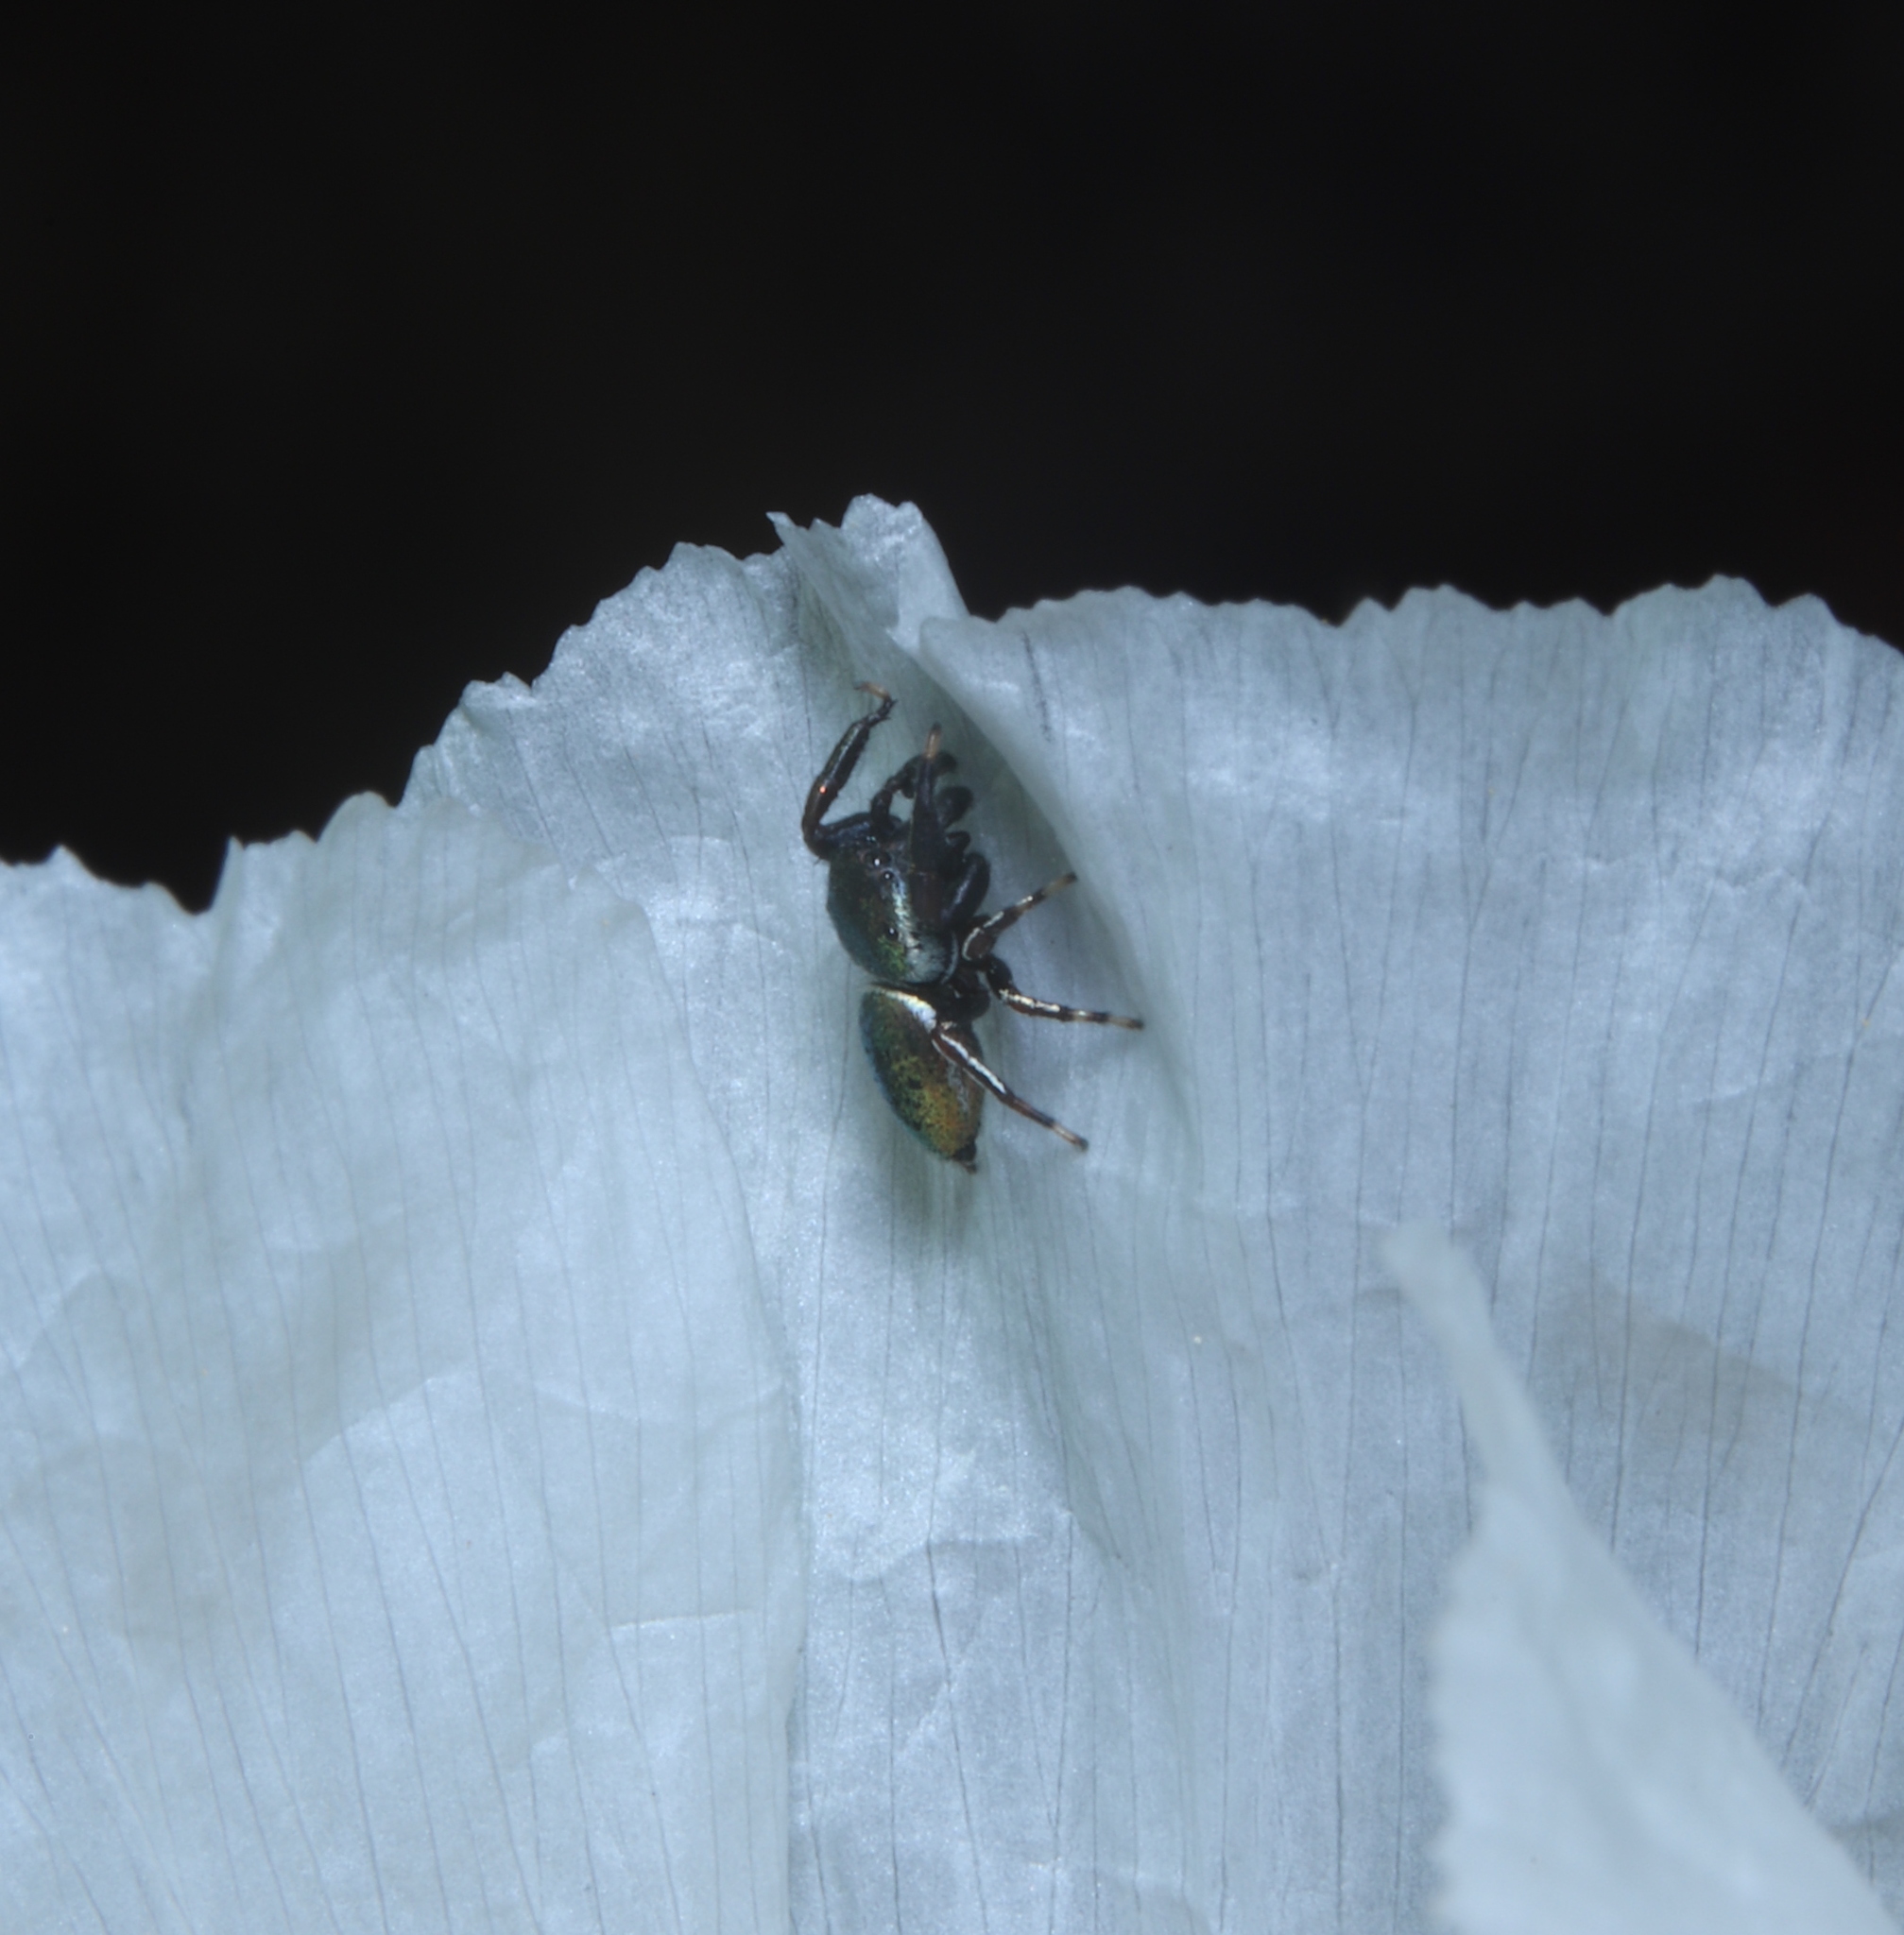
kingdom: Animalia
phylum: Arthropoda
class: Arachnida
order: Araneae
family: Salticidae
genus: Sassacus
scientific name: Sassacus papenhoei
